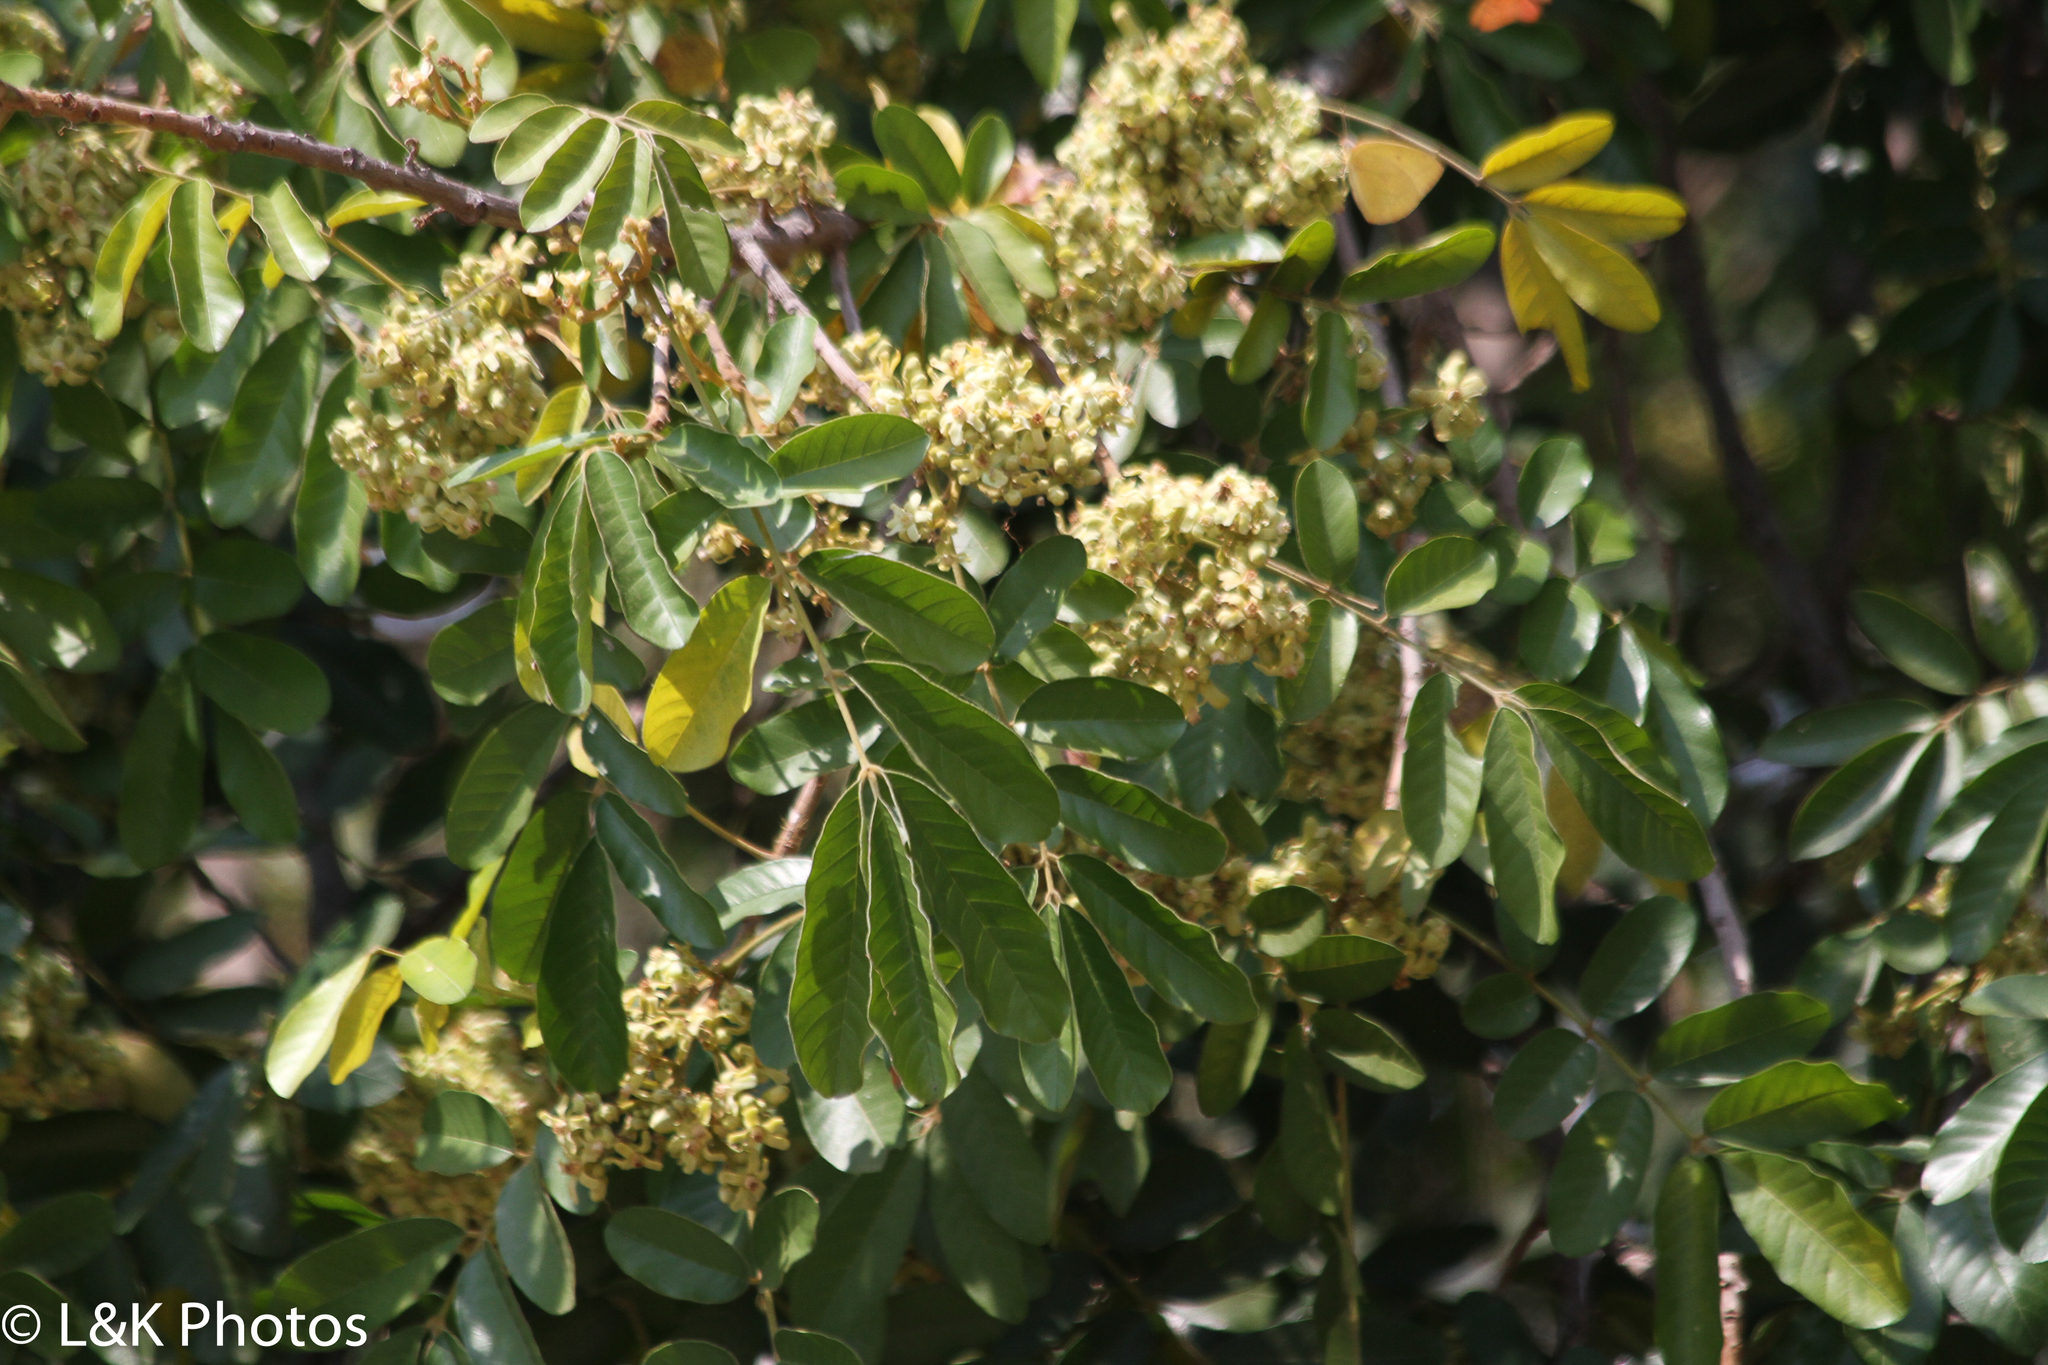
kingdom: Plantae
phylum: Tracheophyta
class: Magnoliopsida
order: Sapindales
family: Meliaceae
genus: Trichilia
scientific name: Trichilia emetica
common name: Christmas-bells
